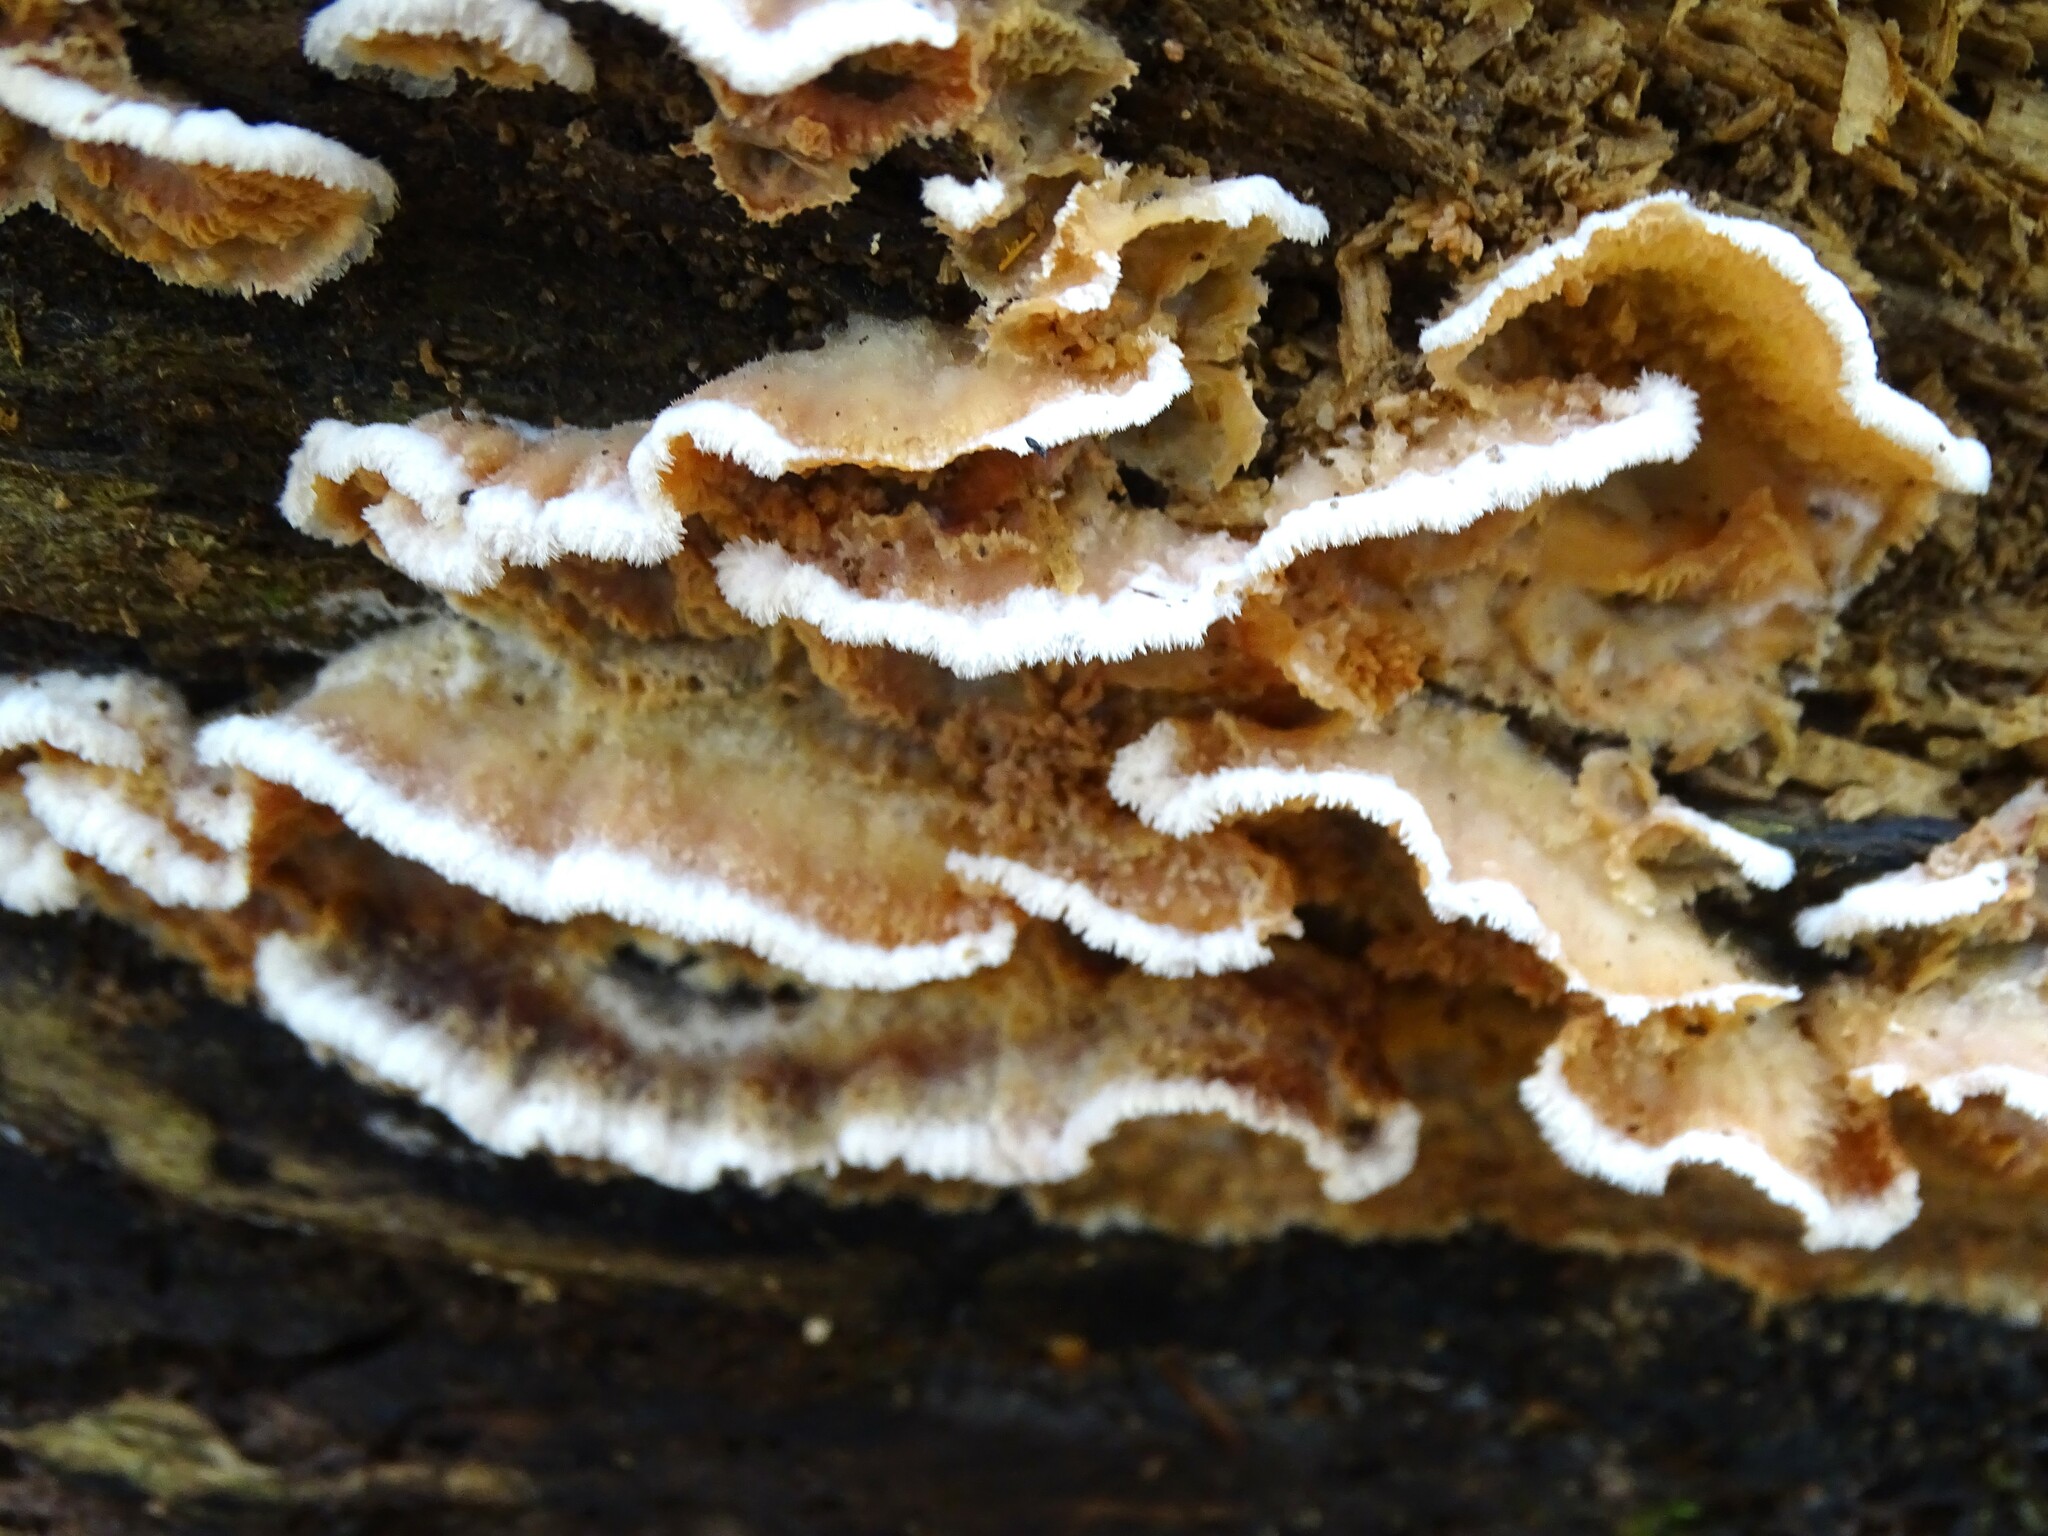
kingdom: Fungi
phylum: Basidiomycota
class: Agaricomycetes
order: Polyporales
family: Meruliaceae
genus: Phlebia
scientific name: Phlebia tremellosa
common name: Jelly rot
